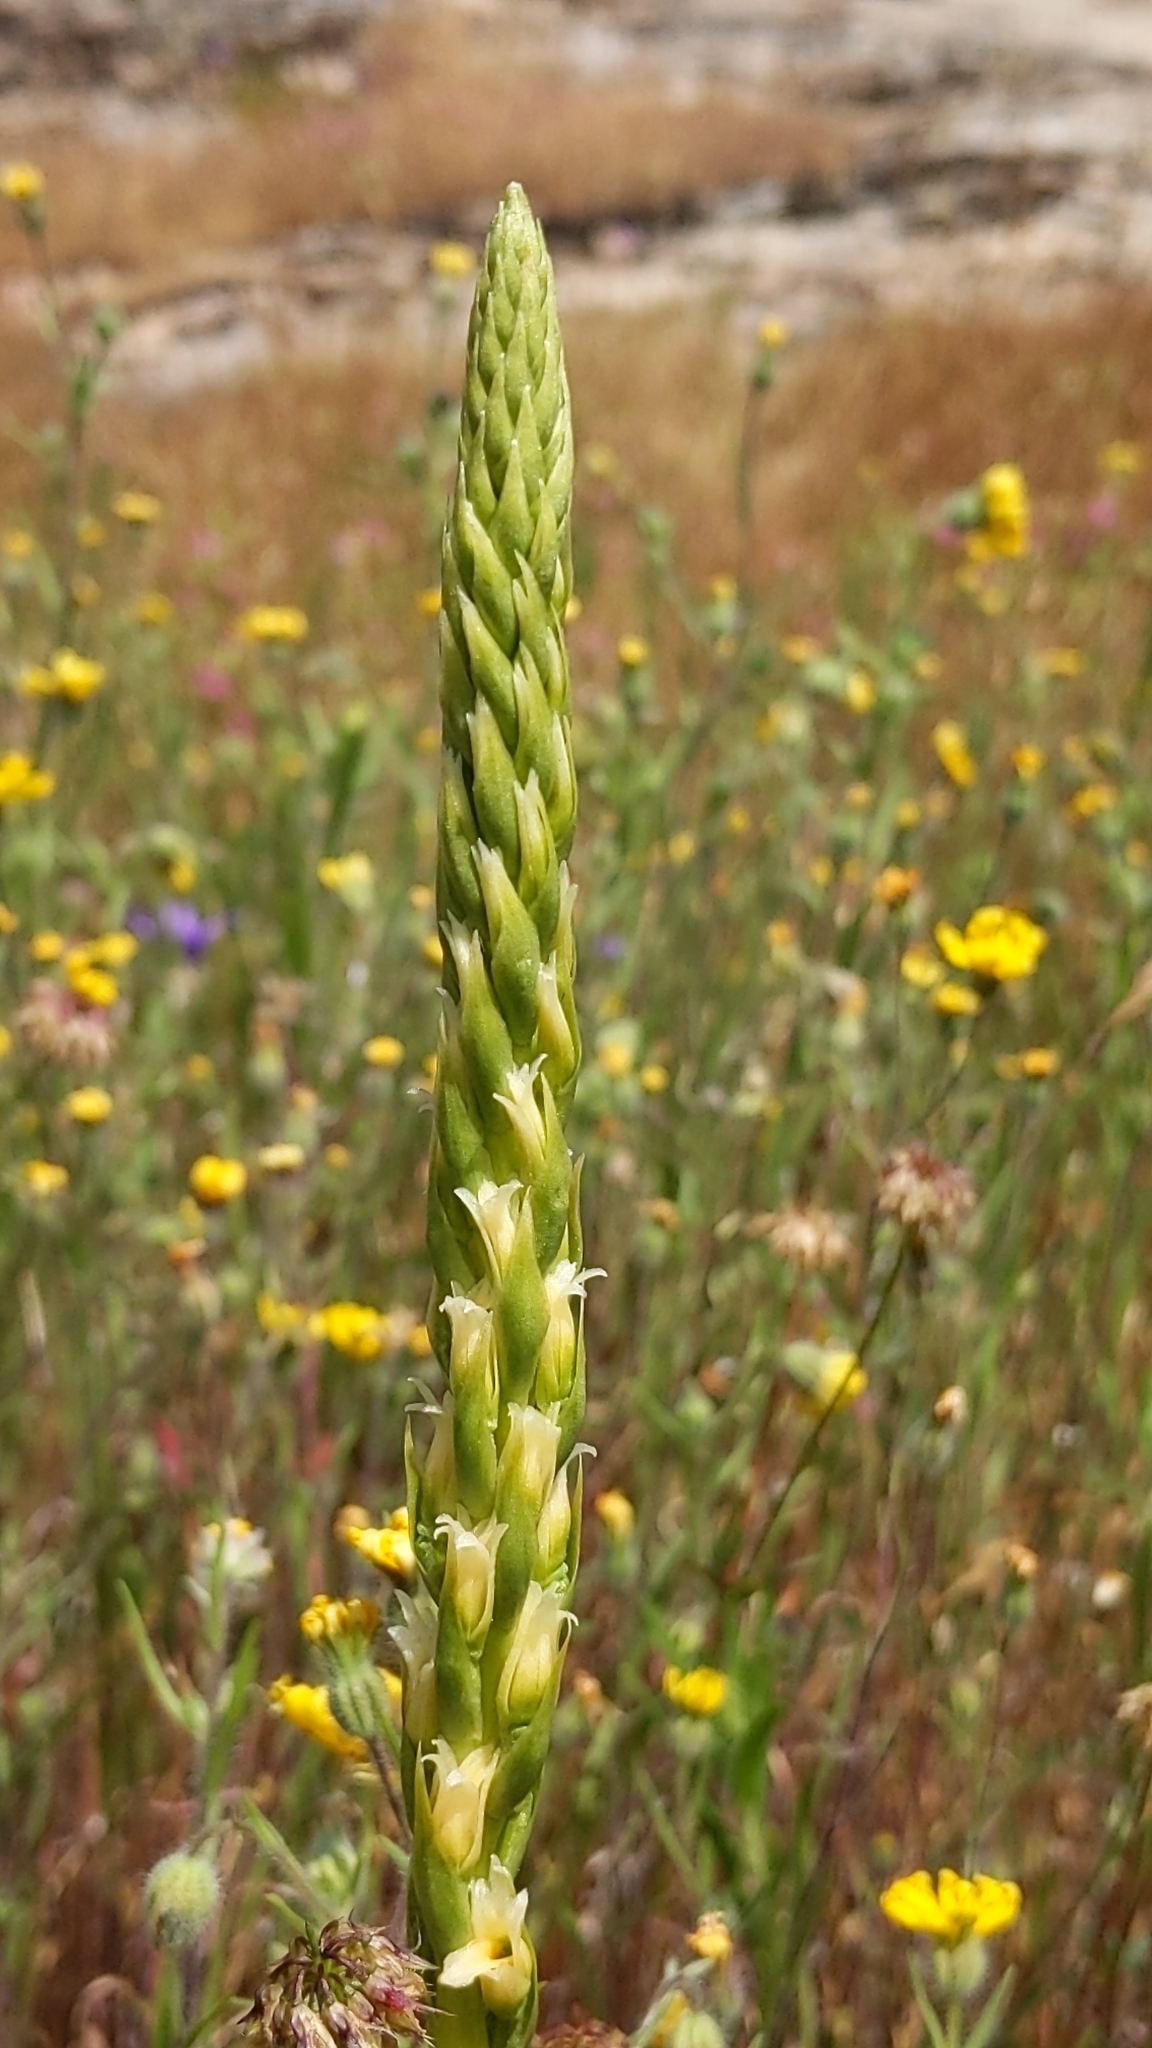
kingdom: Plantae
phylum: Tracheophyta
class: Liliopsida
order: Asparagales
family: Orchidaceae
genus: Spiranthes
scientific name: Spiranthes porrifolia
